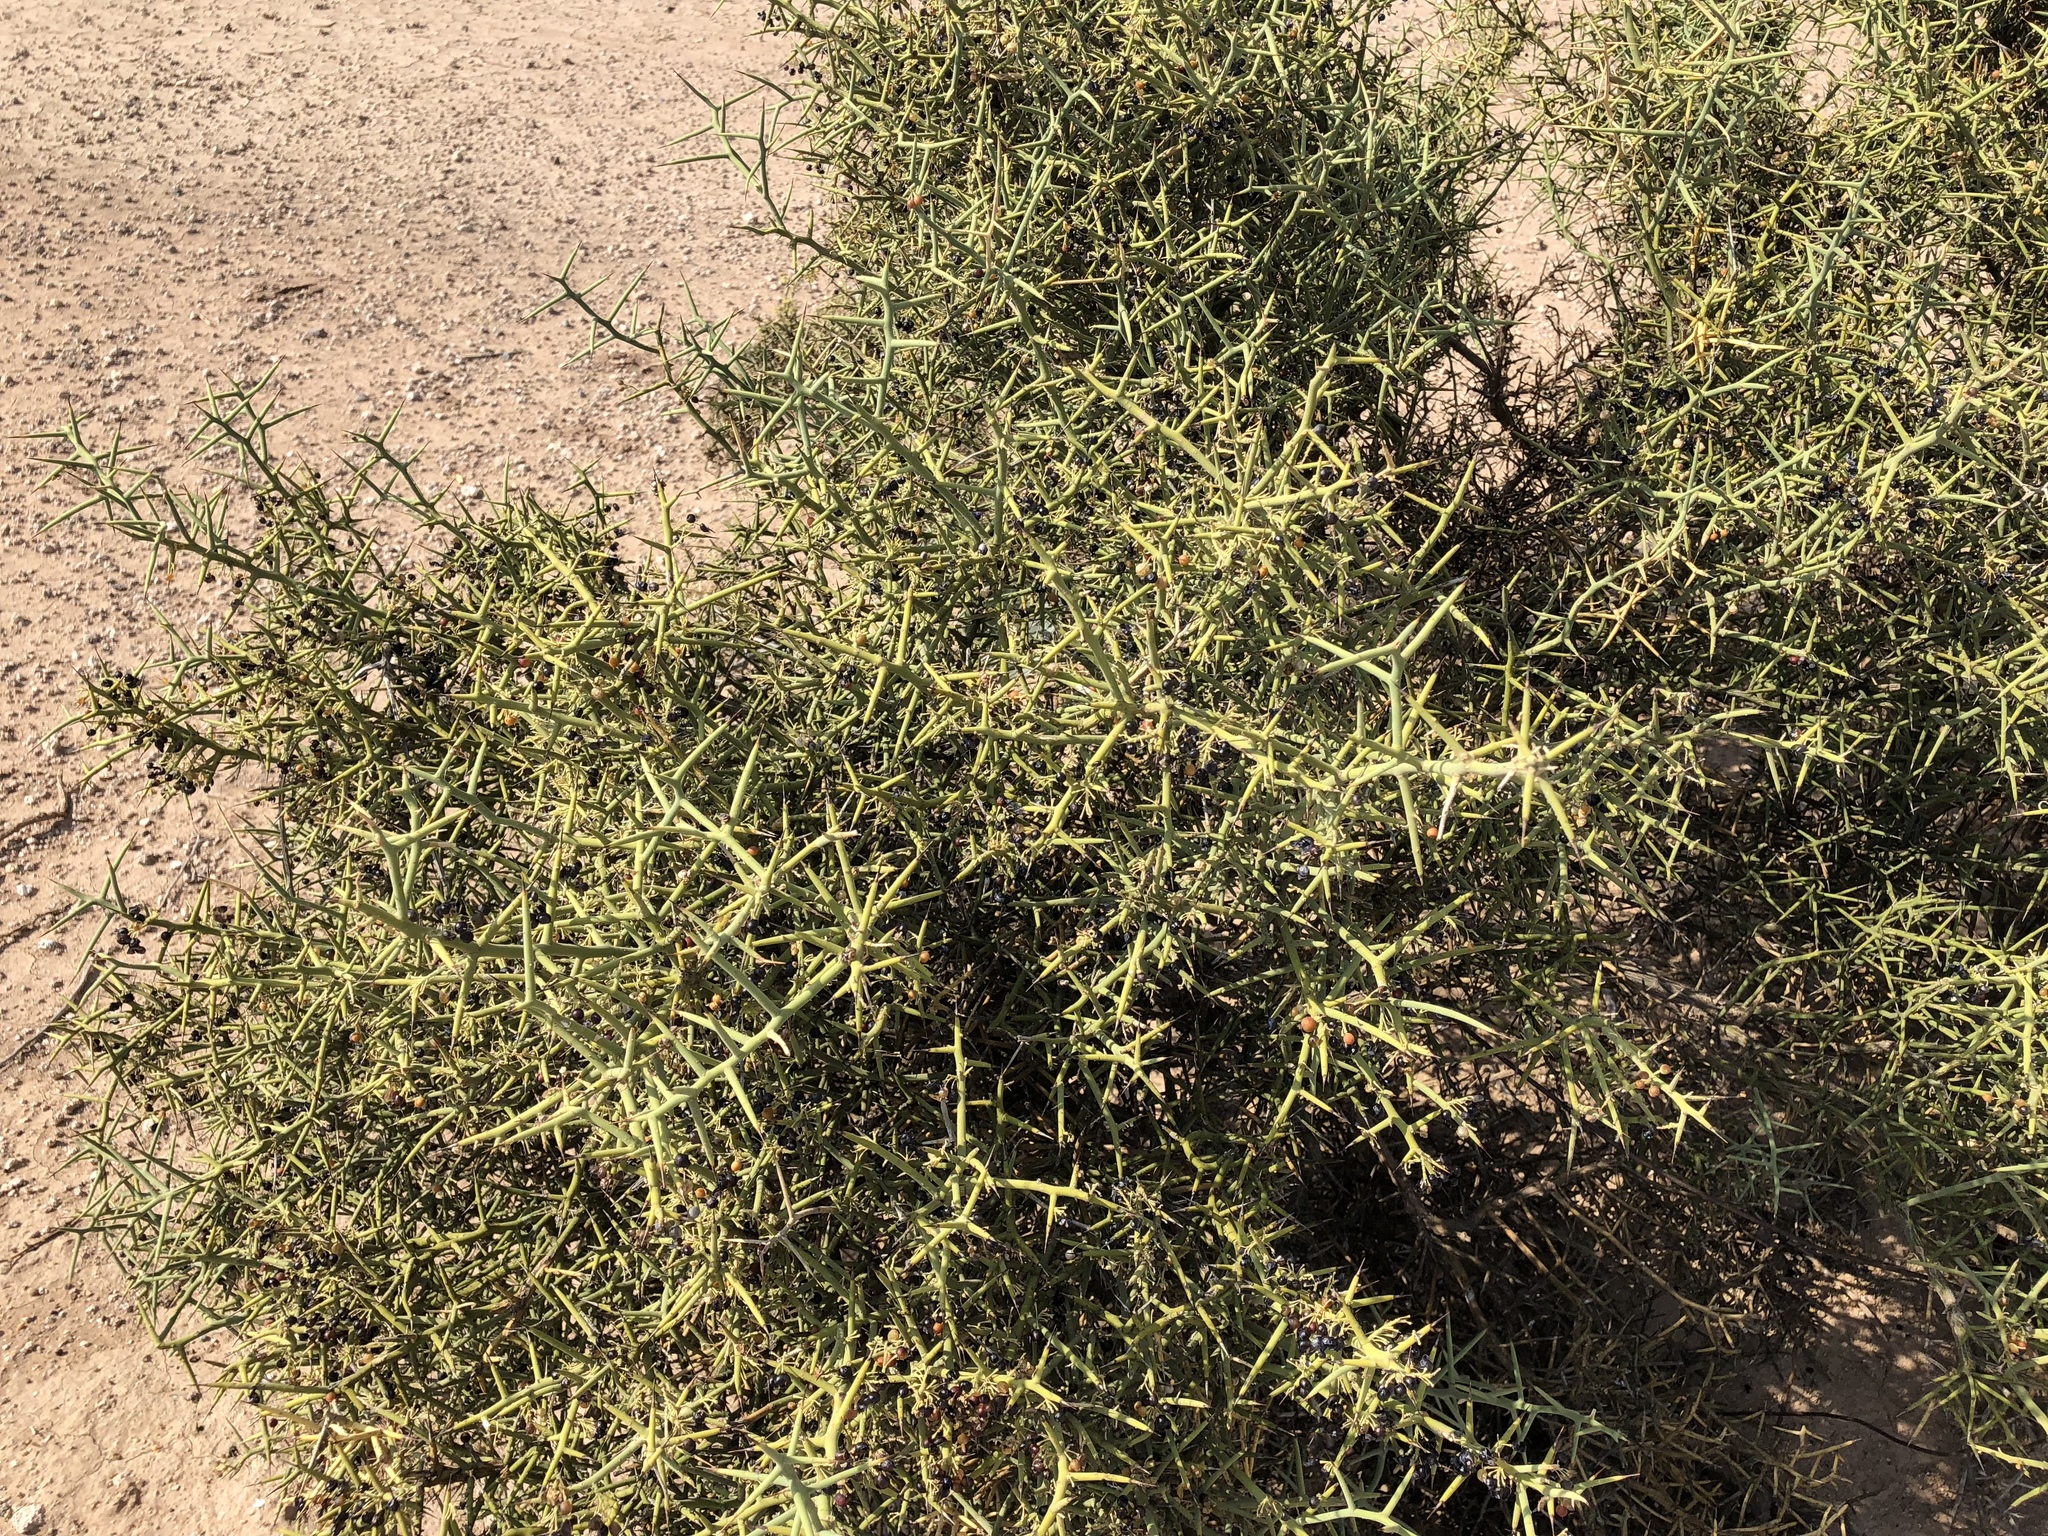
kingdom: Plantae
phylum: Tracheophyta
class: Magnoliopsida
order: Brassicales
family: Koeberliniaceae
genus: Koeberlinia
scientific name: Koeberlinia spinosa
